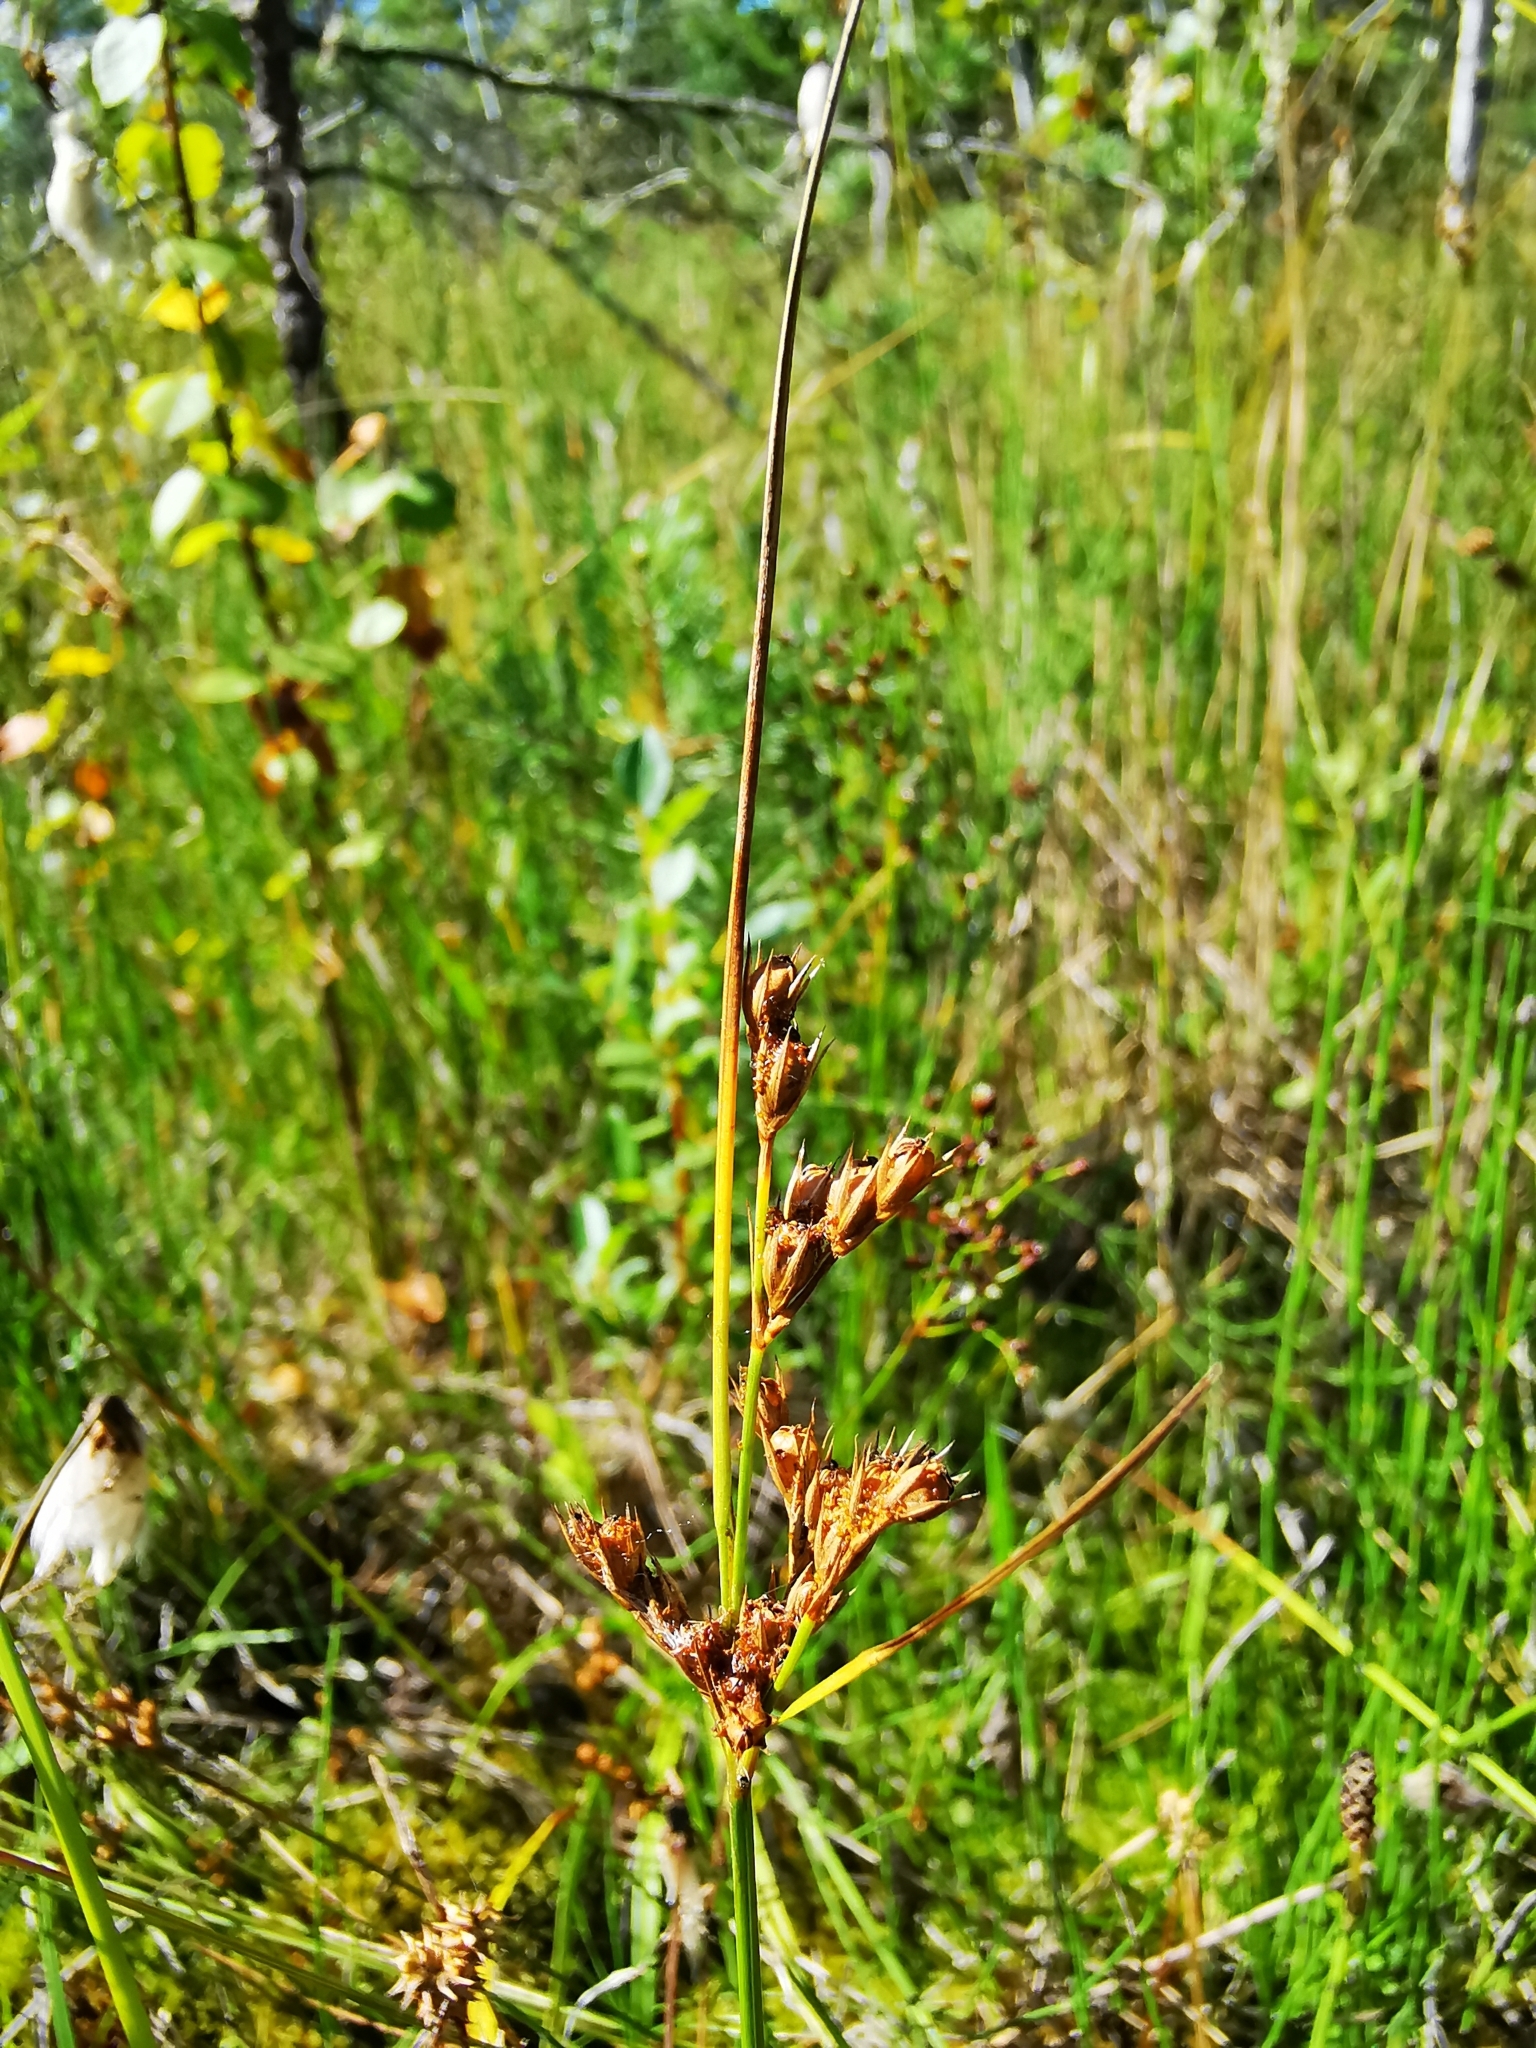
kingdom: Plantae
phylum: Tracheophyta
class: Liliopsida
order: Poales
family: Juncaceae
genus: Juncus
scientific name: Juncus tenuis
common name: Slender rush
